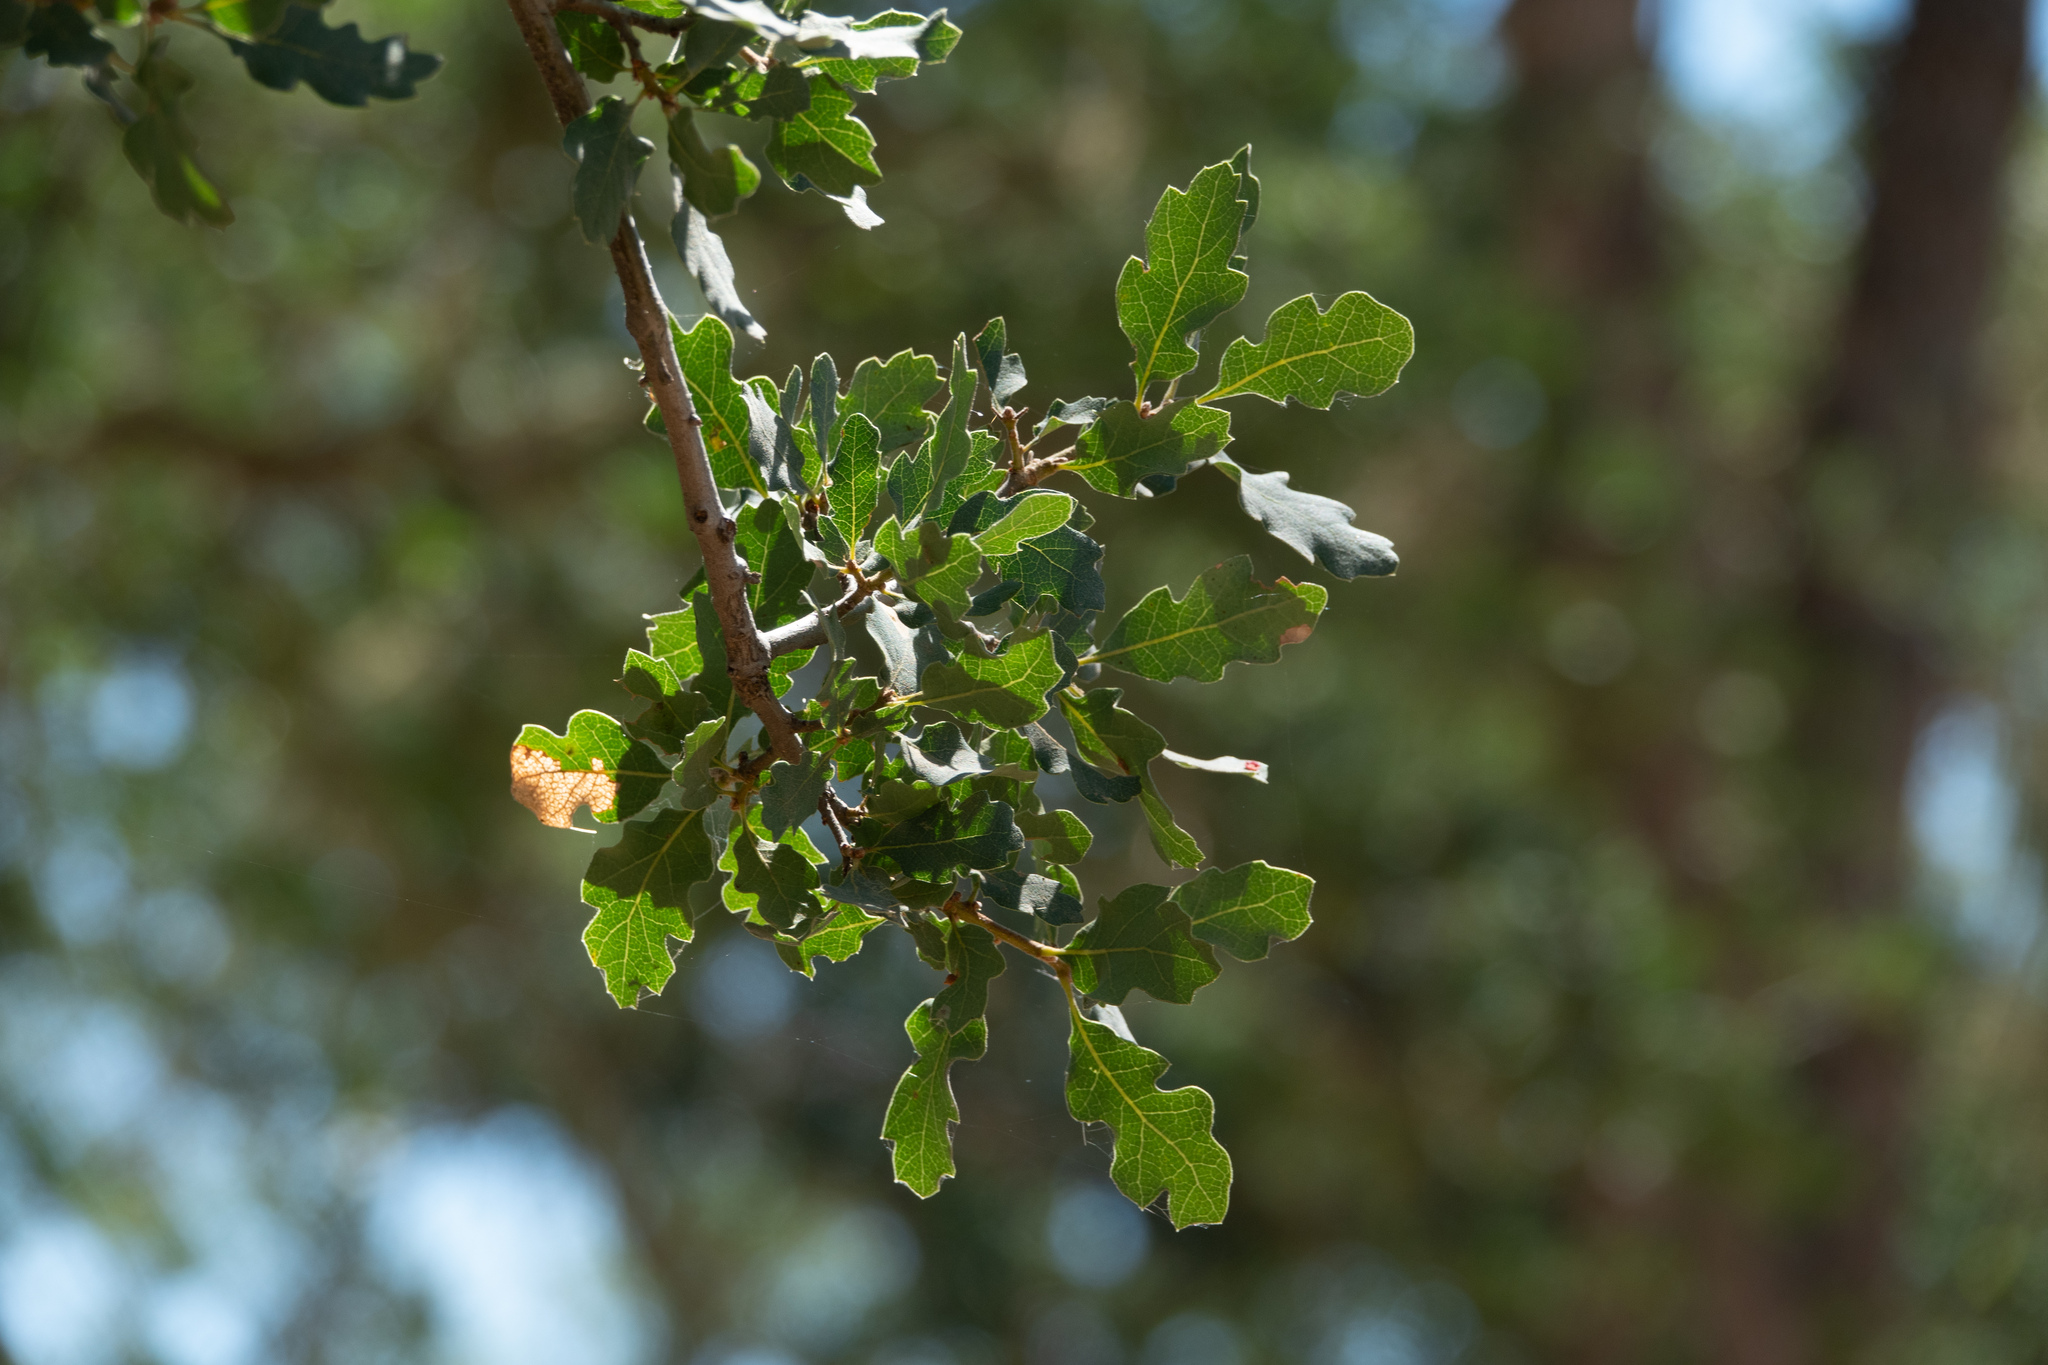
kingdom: Plantae
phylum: Tracheophyta
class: Magnoliopsida
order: Fagales
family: Fagaceae
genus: Quercus
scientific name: Quercus douglasii
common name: Blue oak
